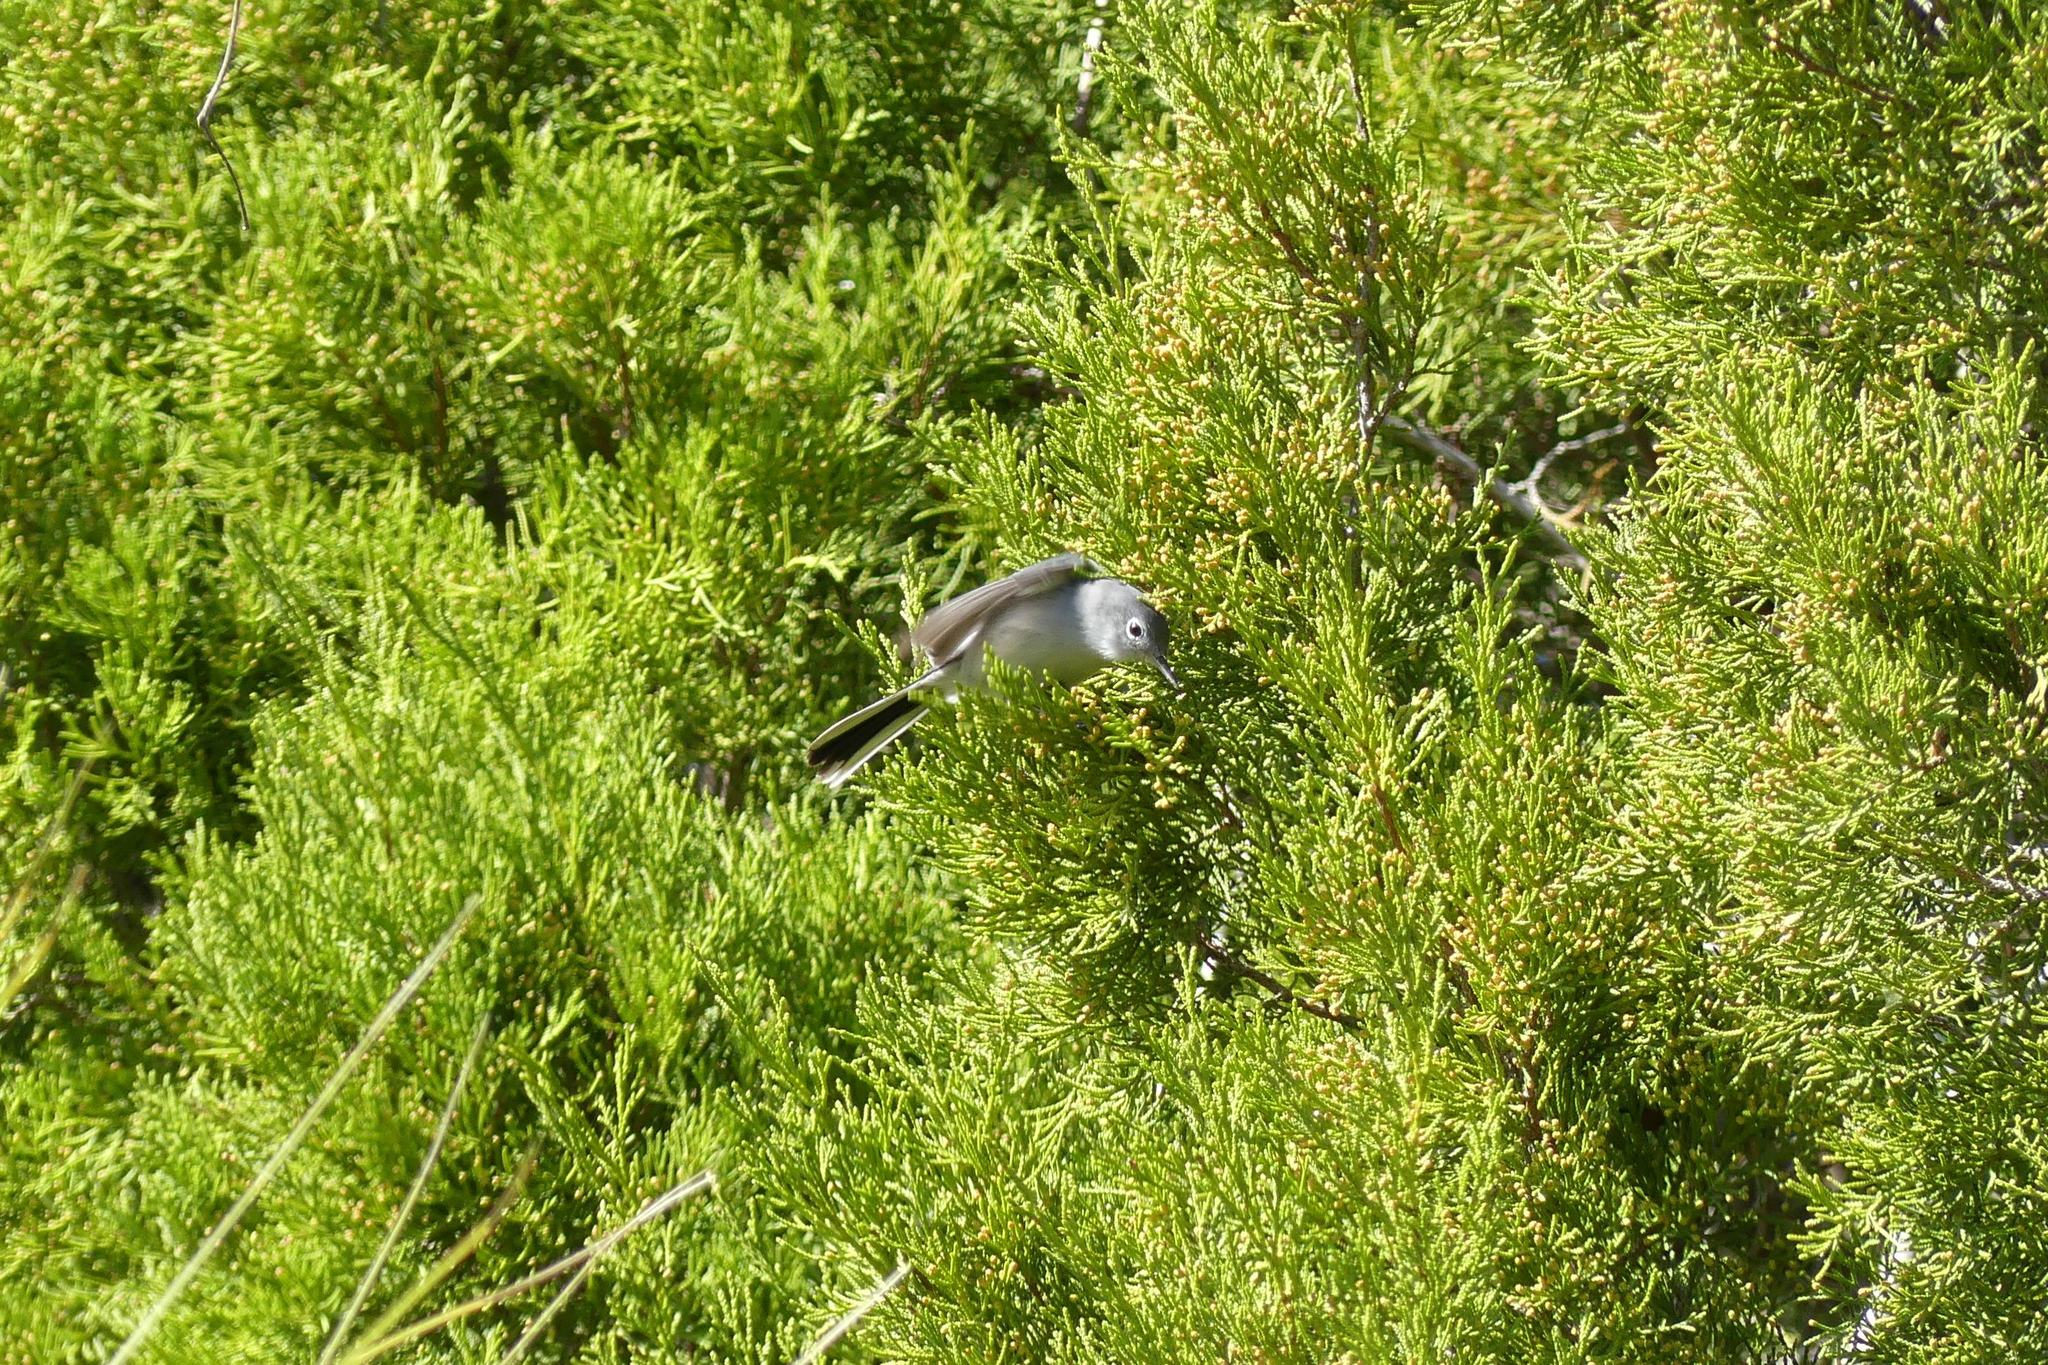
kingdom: Animalia
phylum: Chordata
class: Aves
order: Passeriformes
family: Polioptilidae
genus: Polioptila
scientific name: Polioptila caerulea
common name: Blue-gray gnatcatcher
